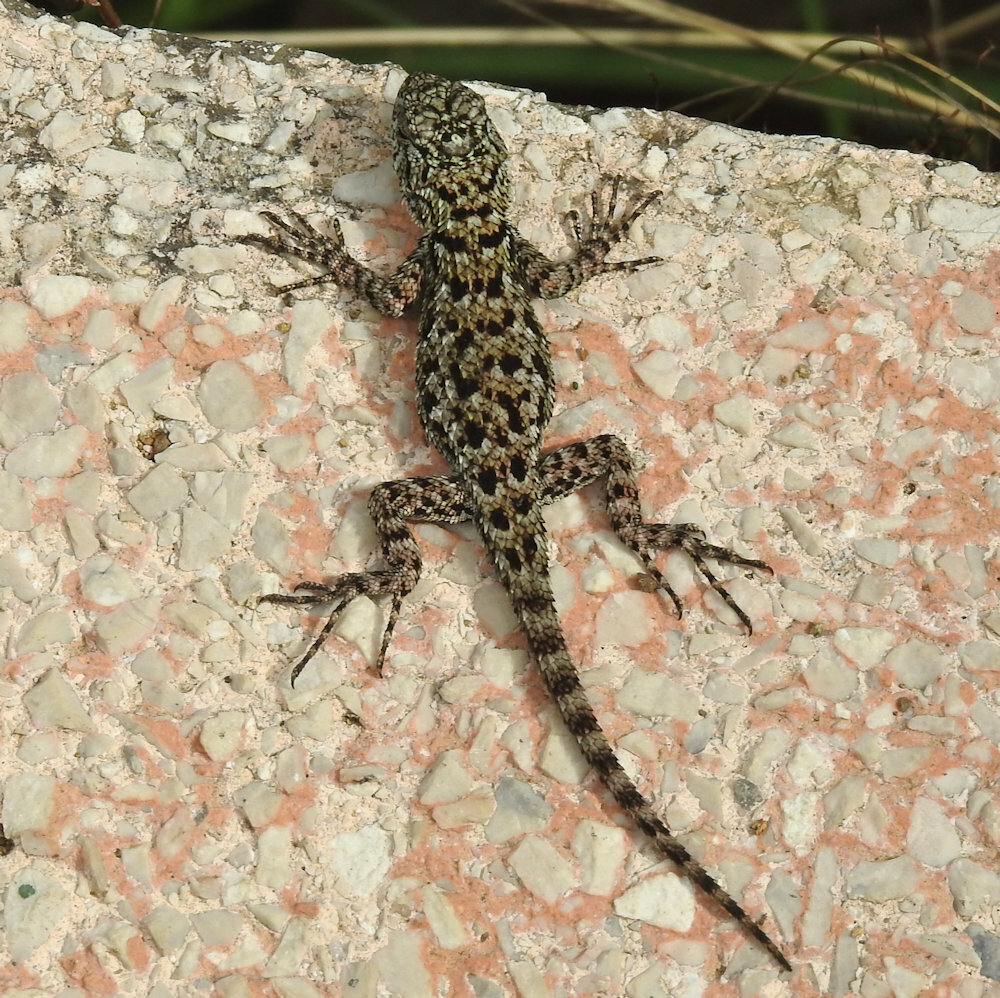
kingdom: Animalia
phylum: Chordata
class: Squamata
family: Phrynosomatidae
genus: Sceloporus
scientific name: Sceloporus malachiticus
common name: Green spiny lizard
